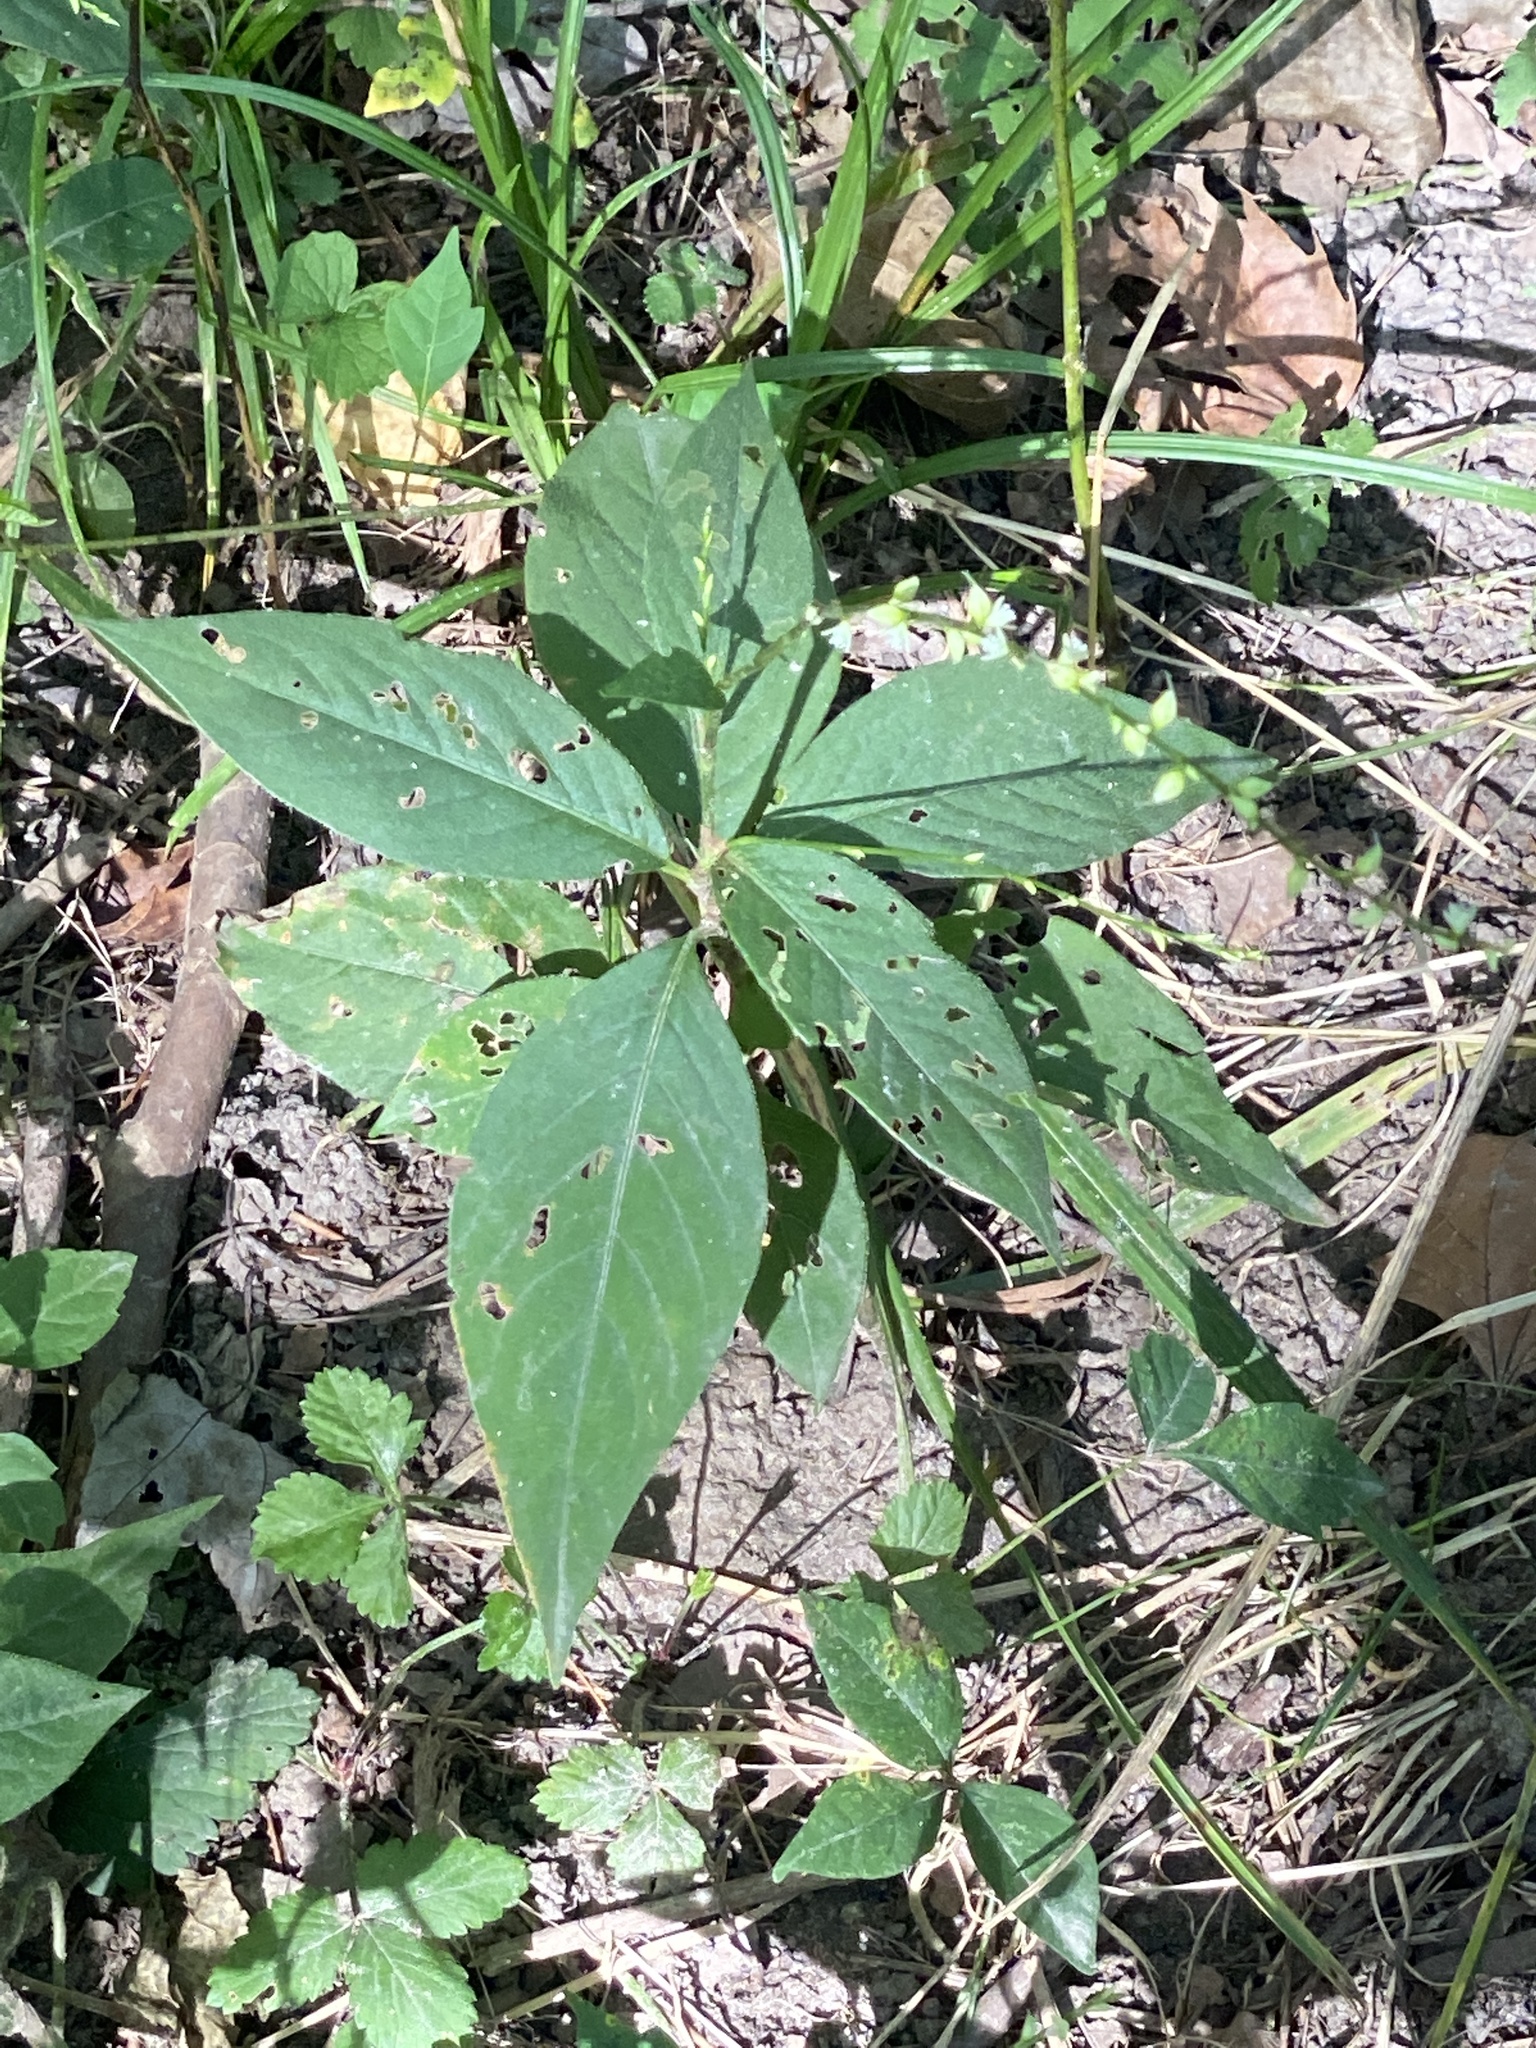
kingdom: Plantae
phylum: Tracheophyta
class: Magnoliopsida
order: Caryophyllales
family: Polygonaceae
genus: Persicaria
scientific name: Persicaria virginiana
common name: Jumpseed
